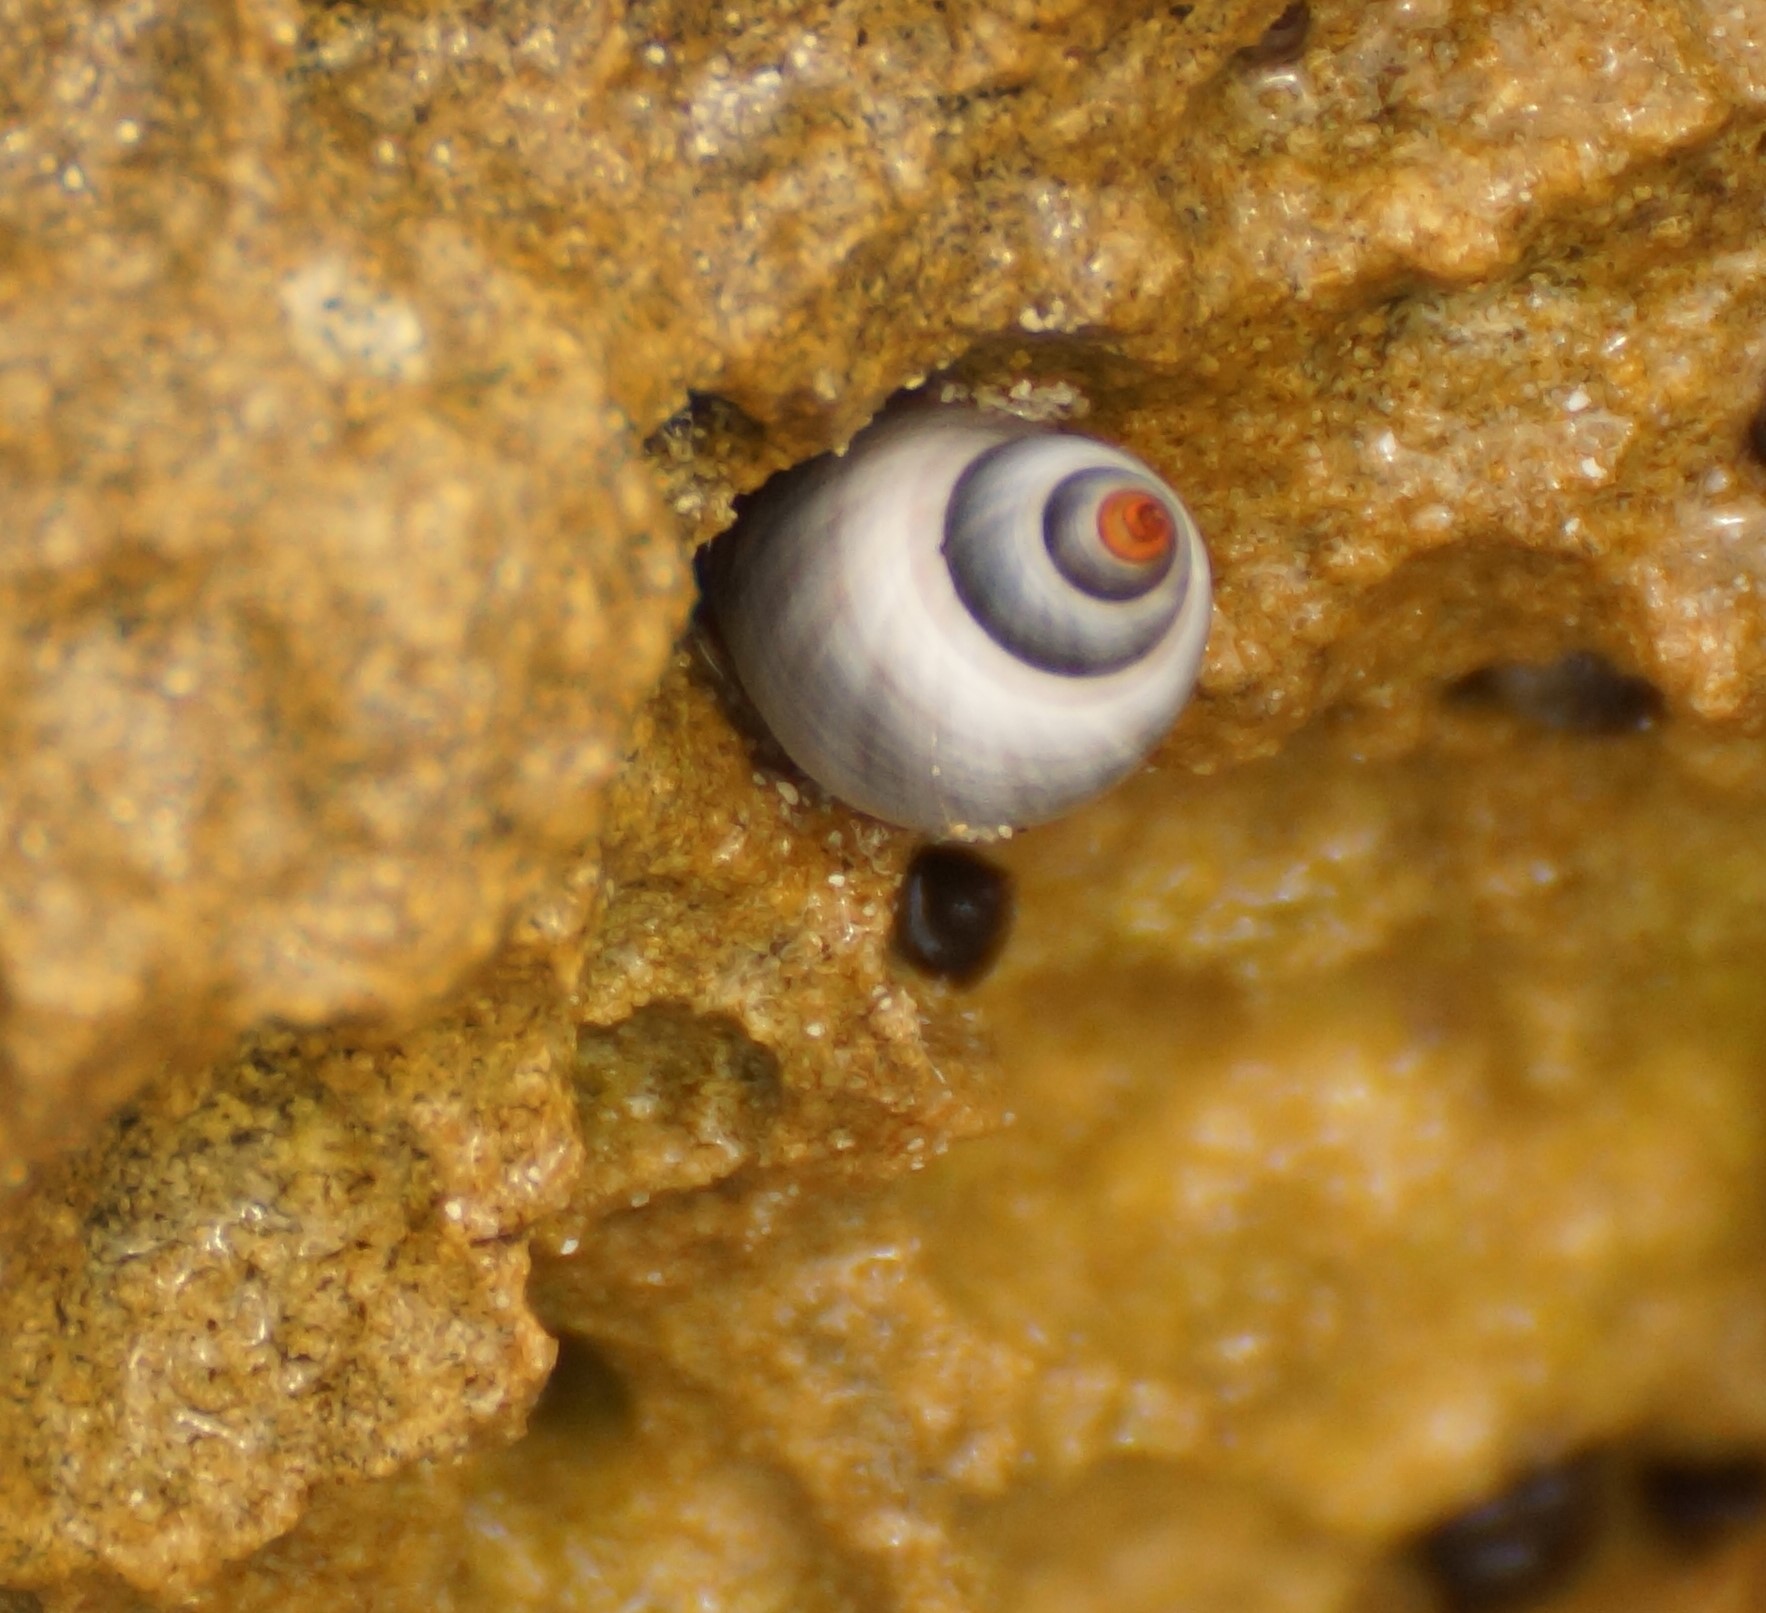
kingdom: Animalia
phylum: Mollusca
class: Gastropoda
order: Littorinimorpha
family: Littorinidae
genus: Austrolittorina
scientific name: Austrolittorina unifasciata
